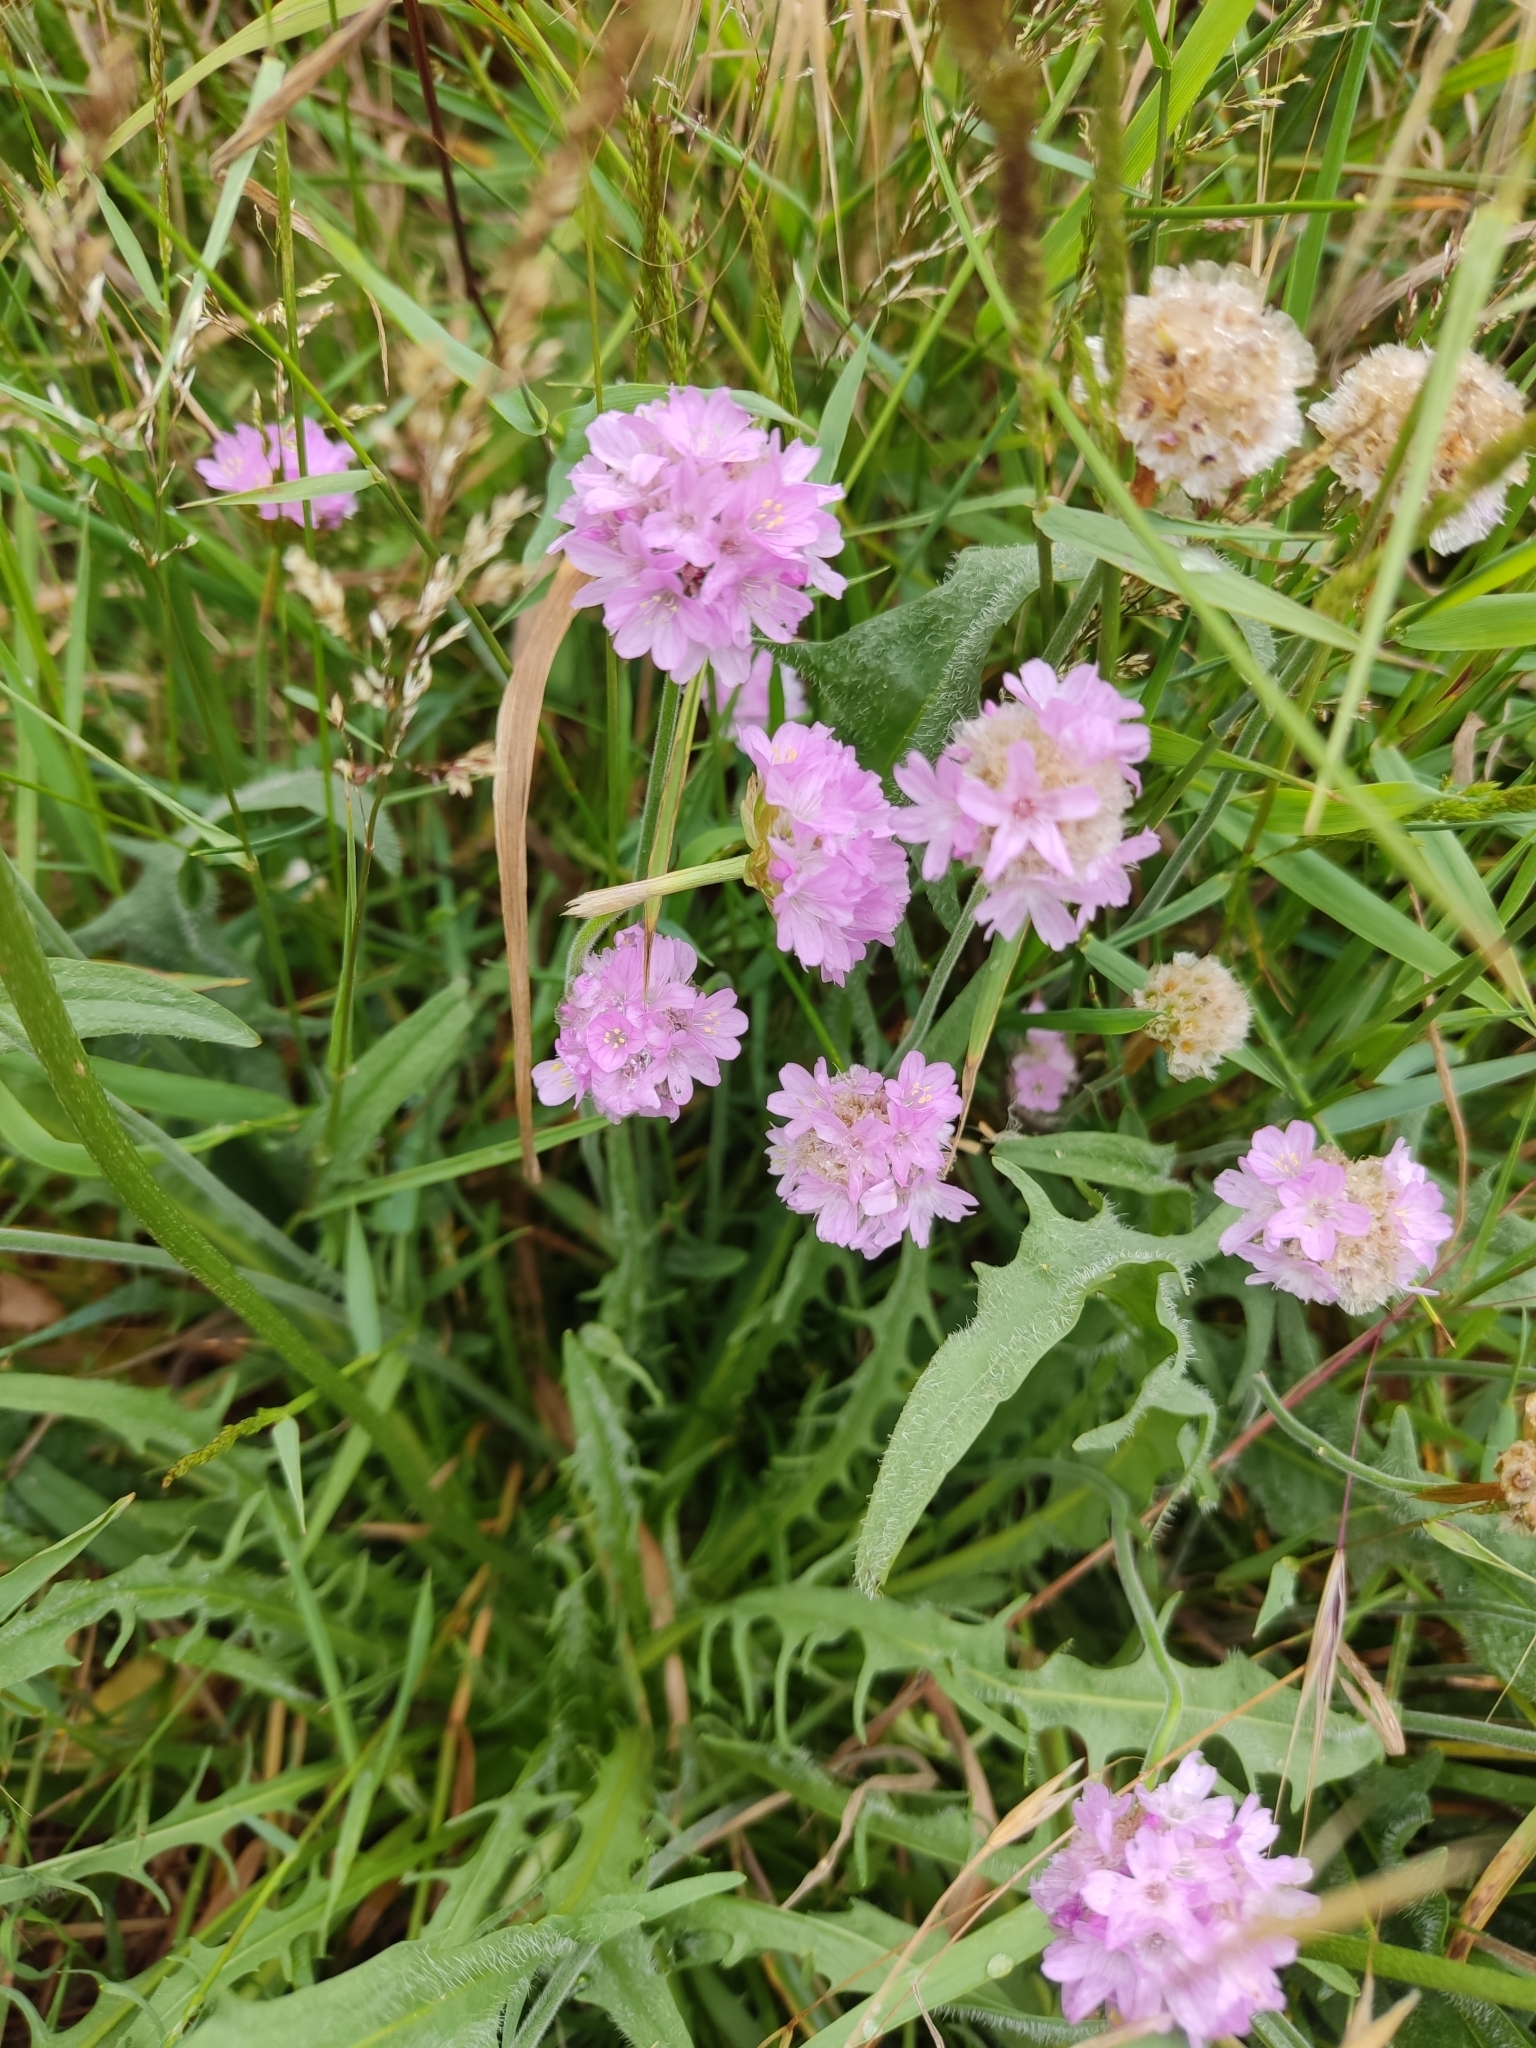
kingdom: Plantae
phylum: Tracheophyta
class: Magnoliopsida
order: Caryophyllales
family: Plumbaginaceae
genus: Armeria
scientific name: Armeria maritima
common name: Thrift
